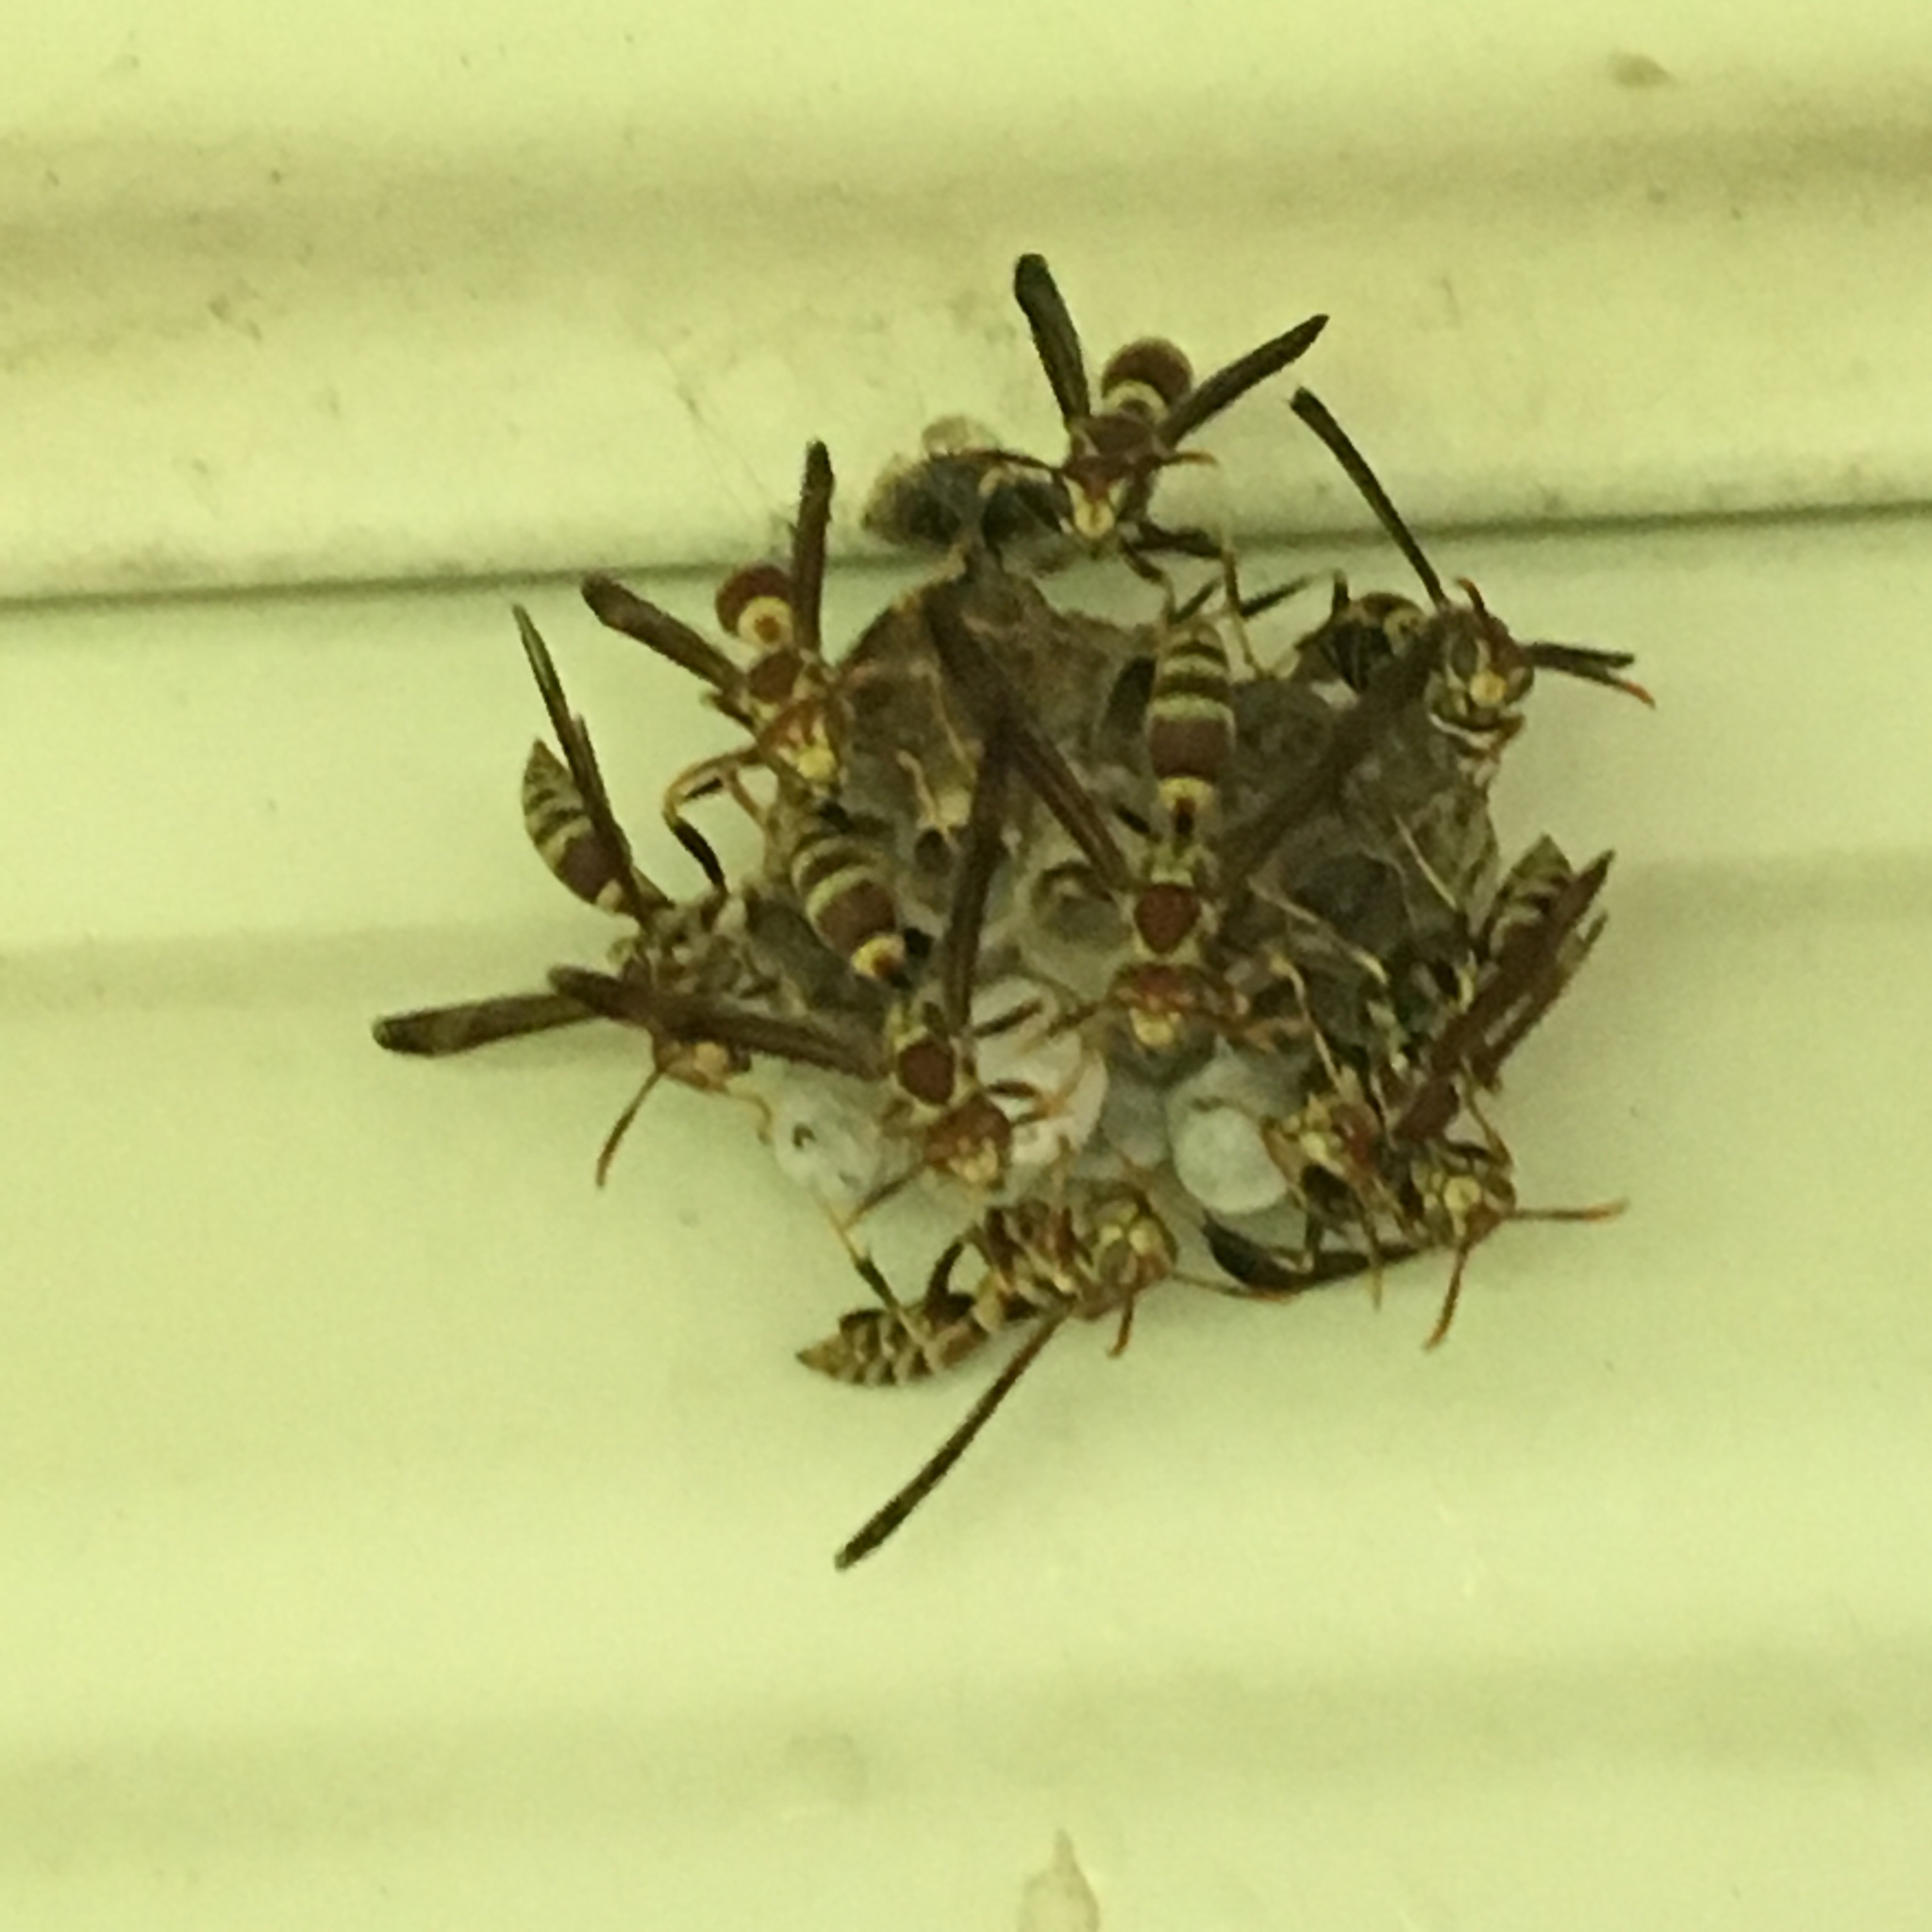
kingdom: Animalia
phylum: Arthropoda
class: Insecta
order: Hymenoptera
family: Eumenidae
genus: Polistes
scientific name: Polistes exclamans
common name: Paper wasp
